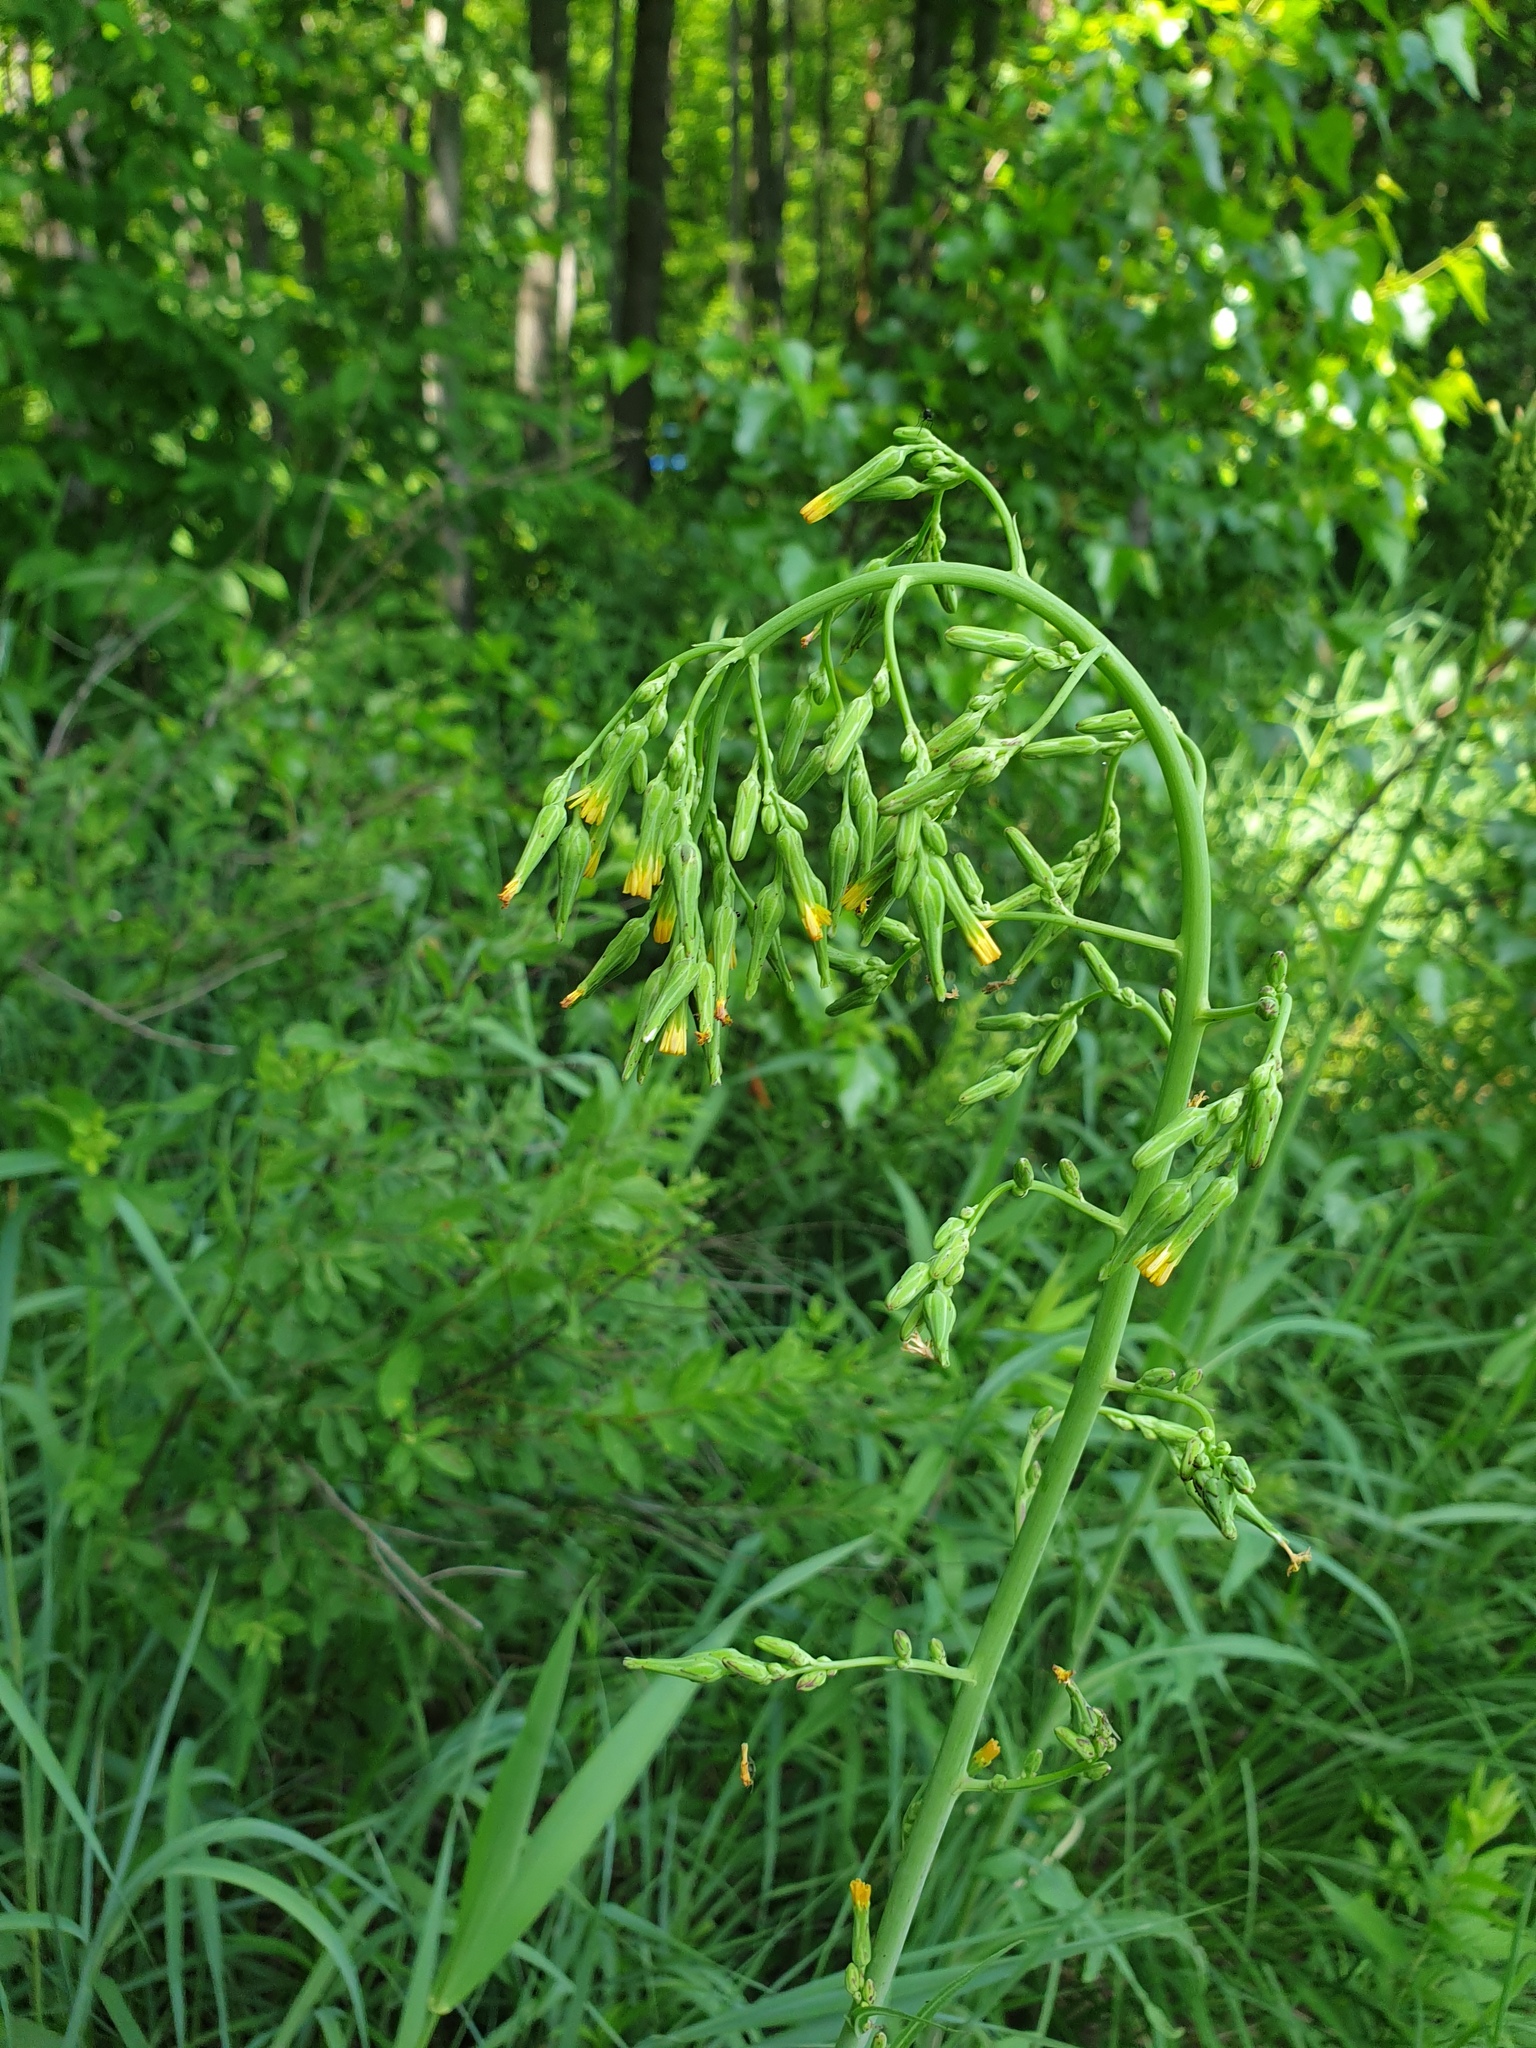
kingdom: Plantae
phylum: Tracheophyta
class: Magnoliopsida
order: Asterales
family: Asteraceae
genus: Lactuca
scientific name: Lactuca canadensis
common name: Canada lettuce
